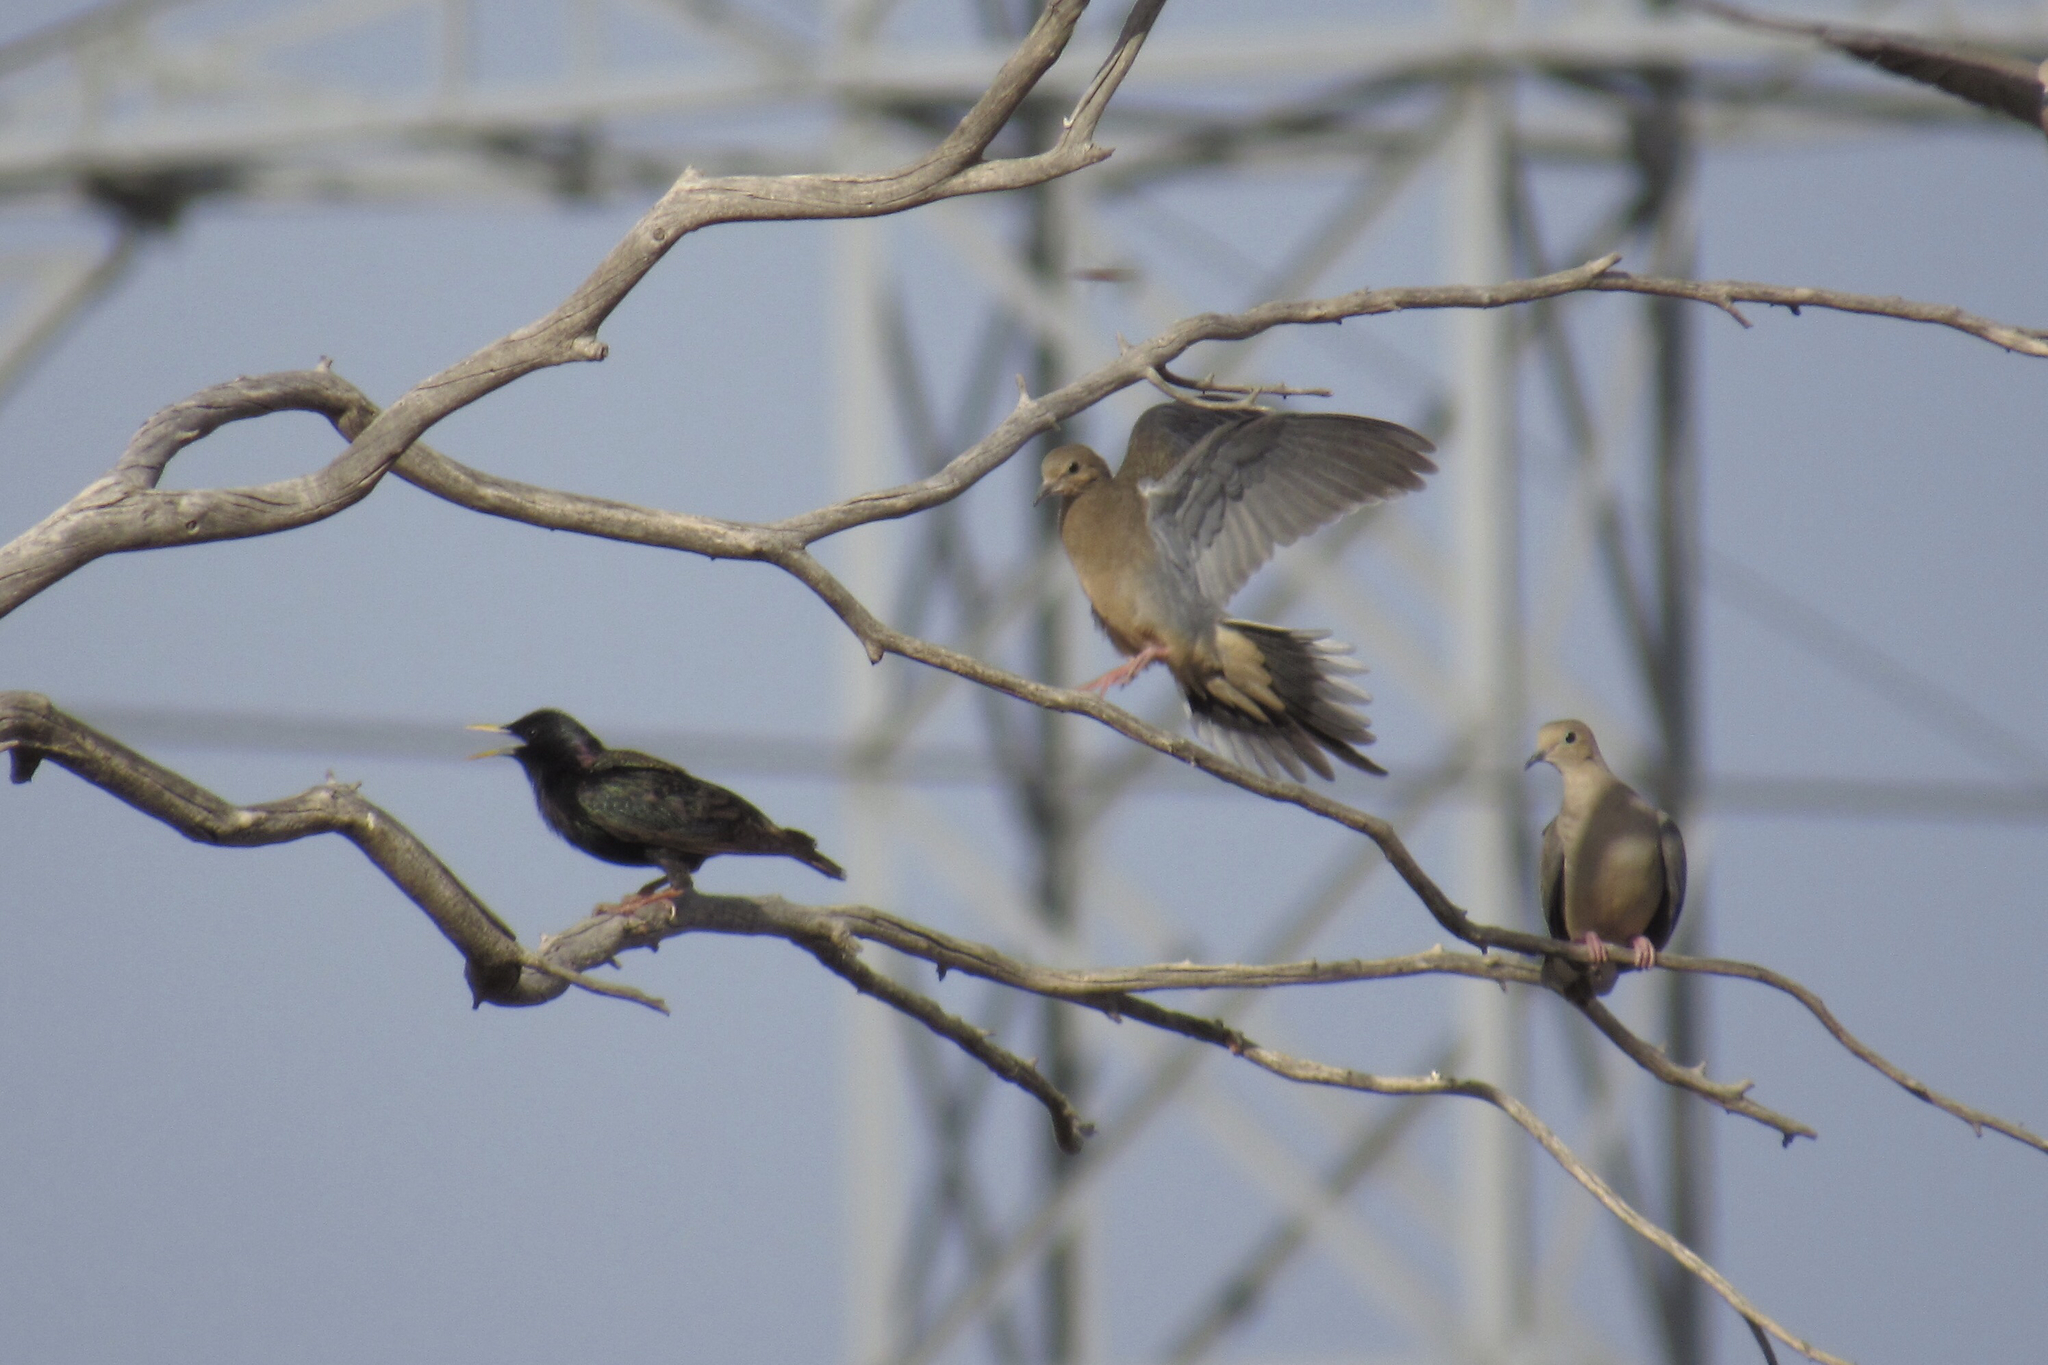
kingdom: Animalia
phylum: Chordata
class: Aves
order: Columbiformes
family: Columbidae
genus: Zenaida
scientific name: Zenaida macroura
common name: Mourning dove
